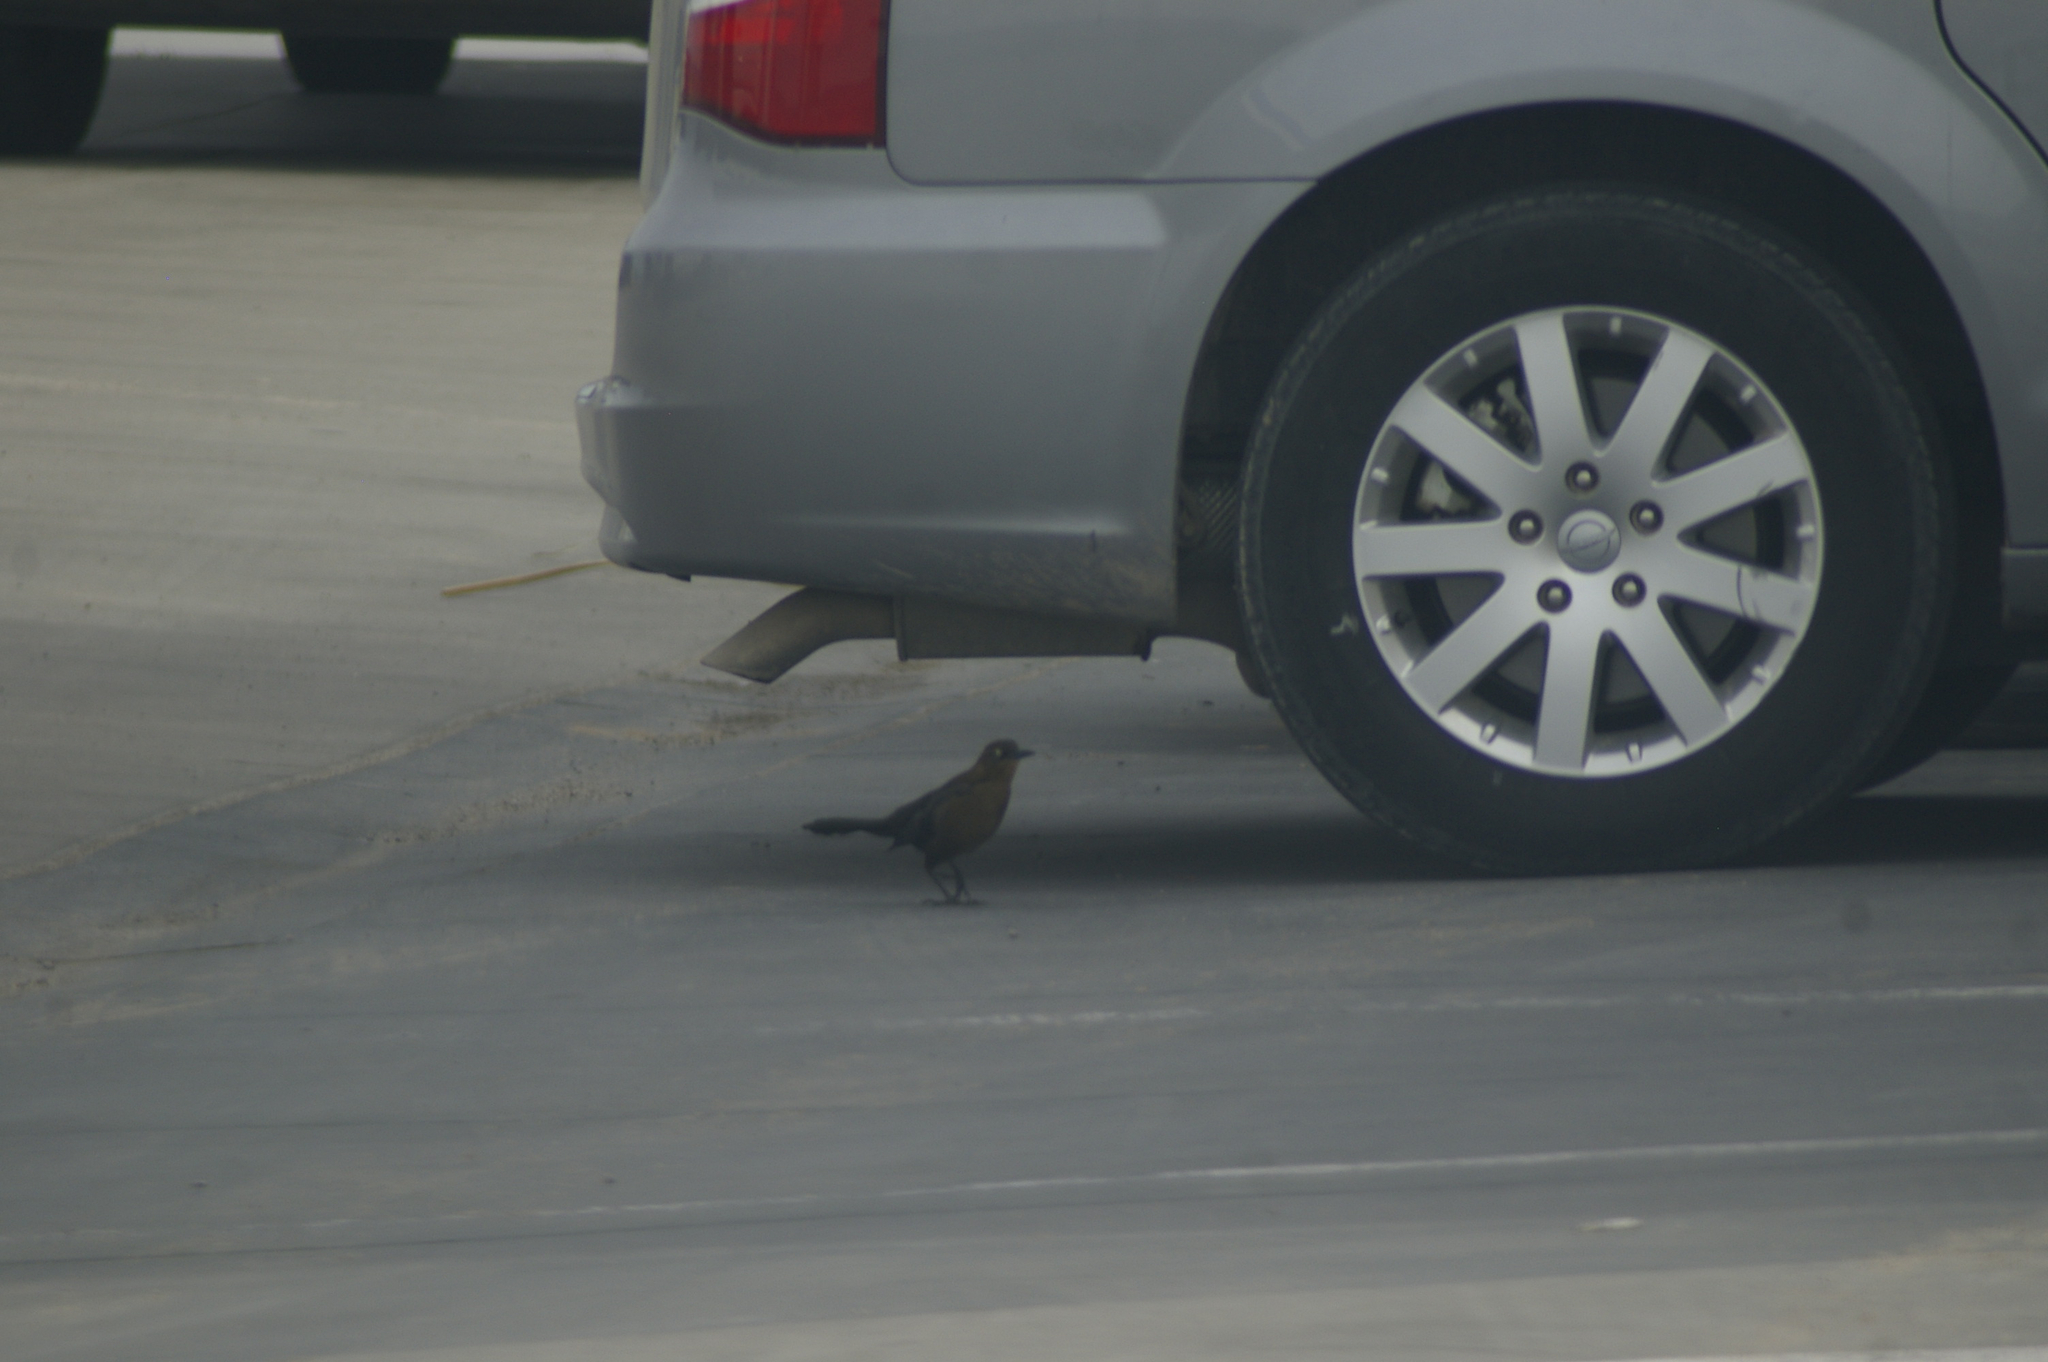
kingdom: Animalia
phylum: Chordata
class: Aves
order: Passeriformes
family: Icteridae
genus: Quiscalus
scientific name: Quiscalus mexicanus
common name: Great-tailed grackle
